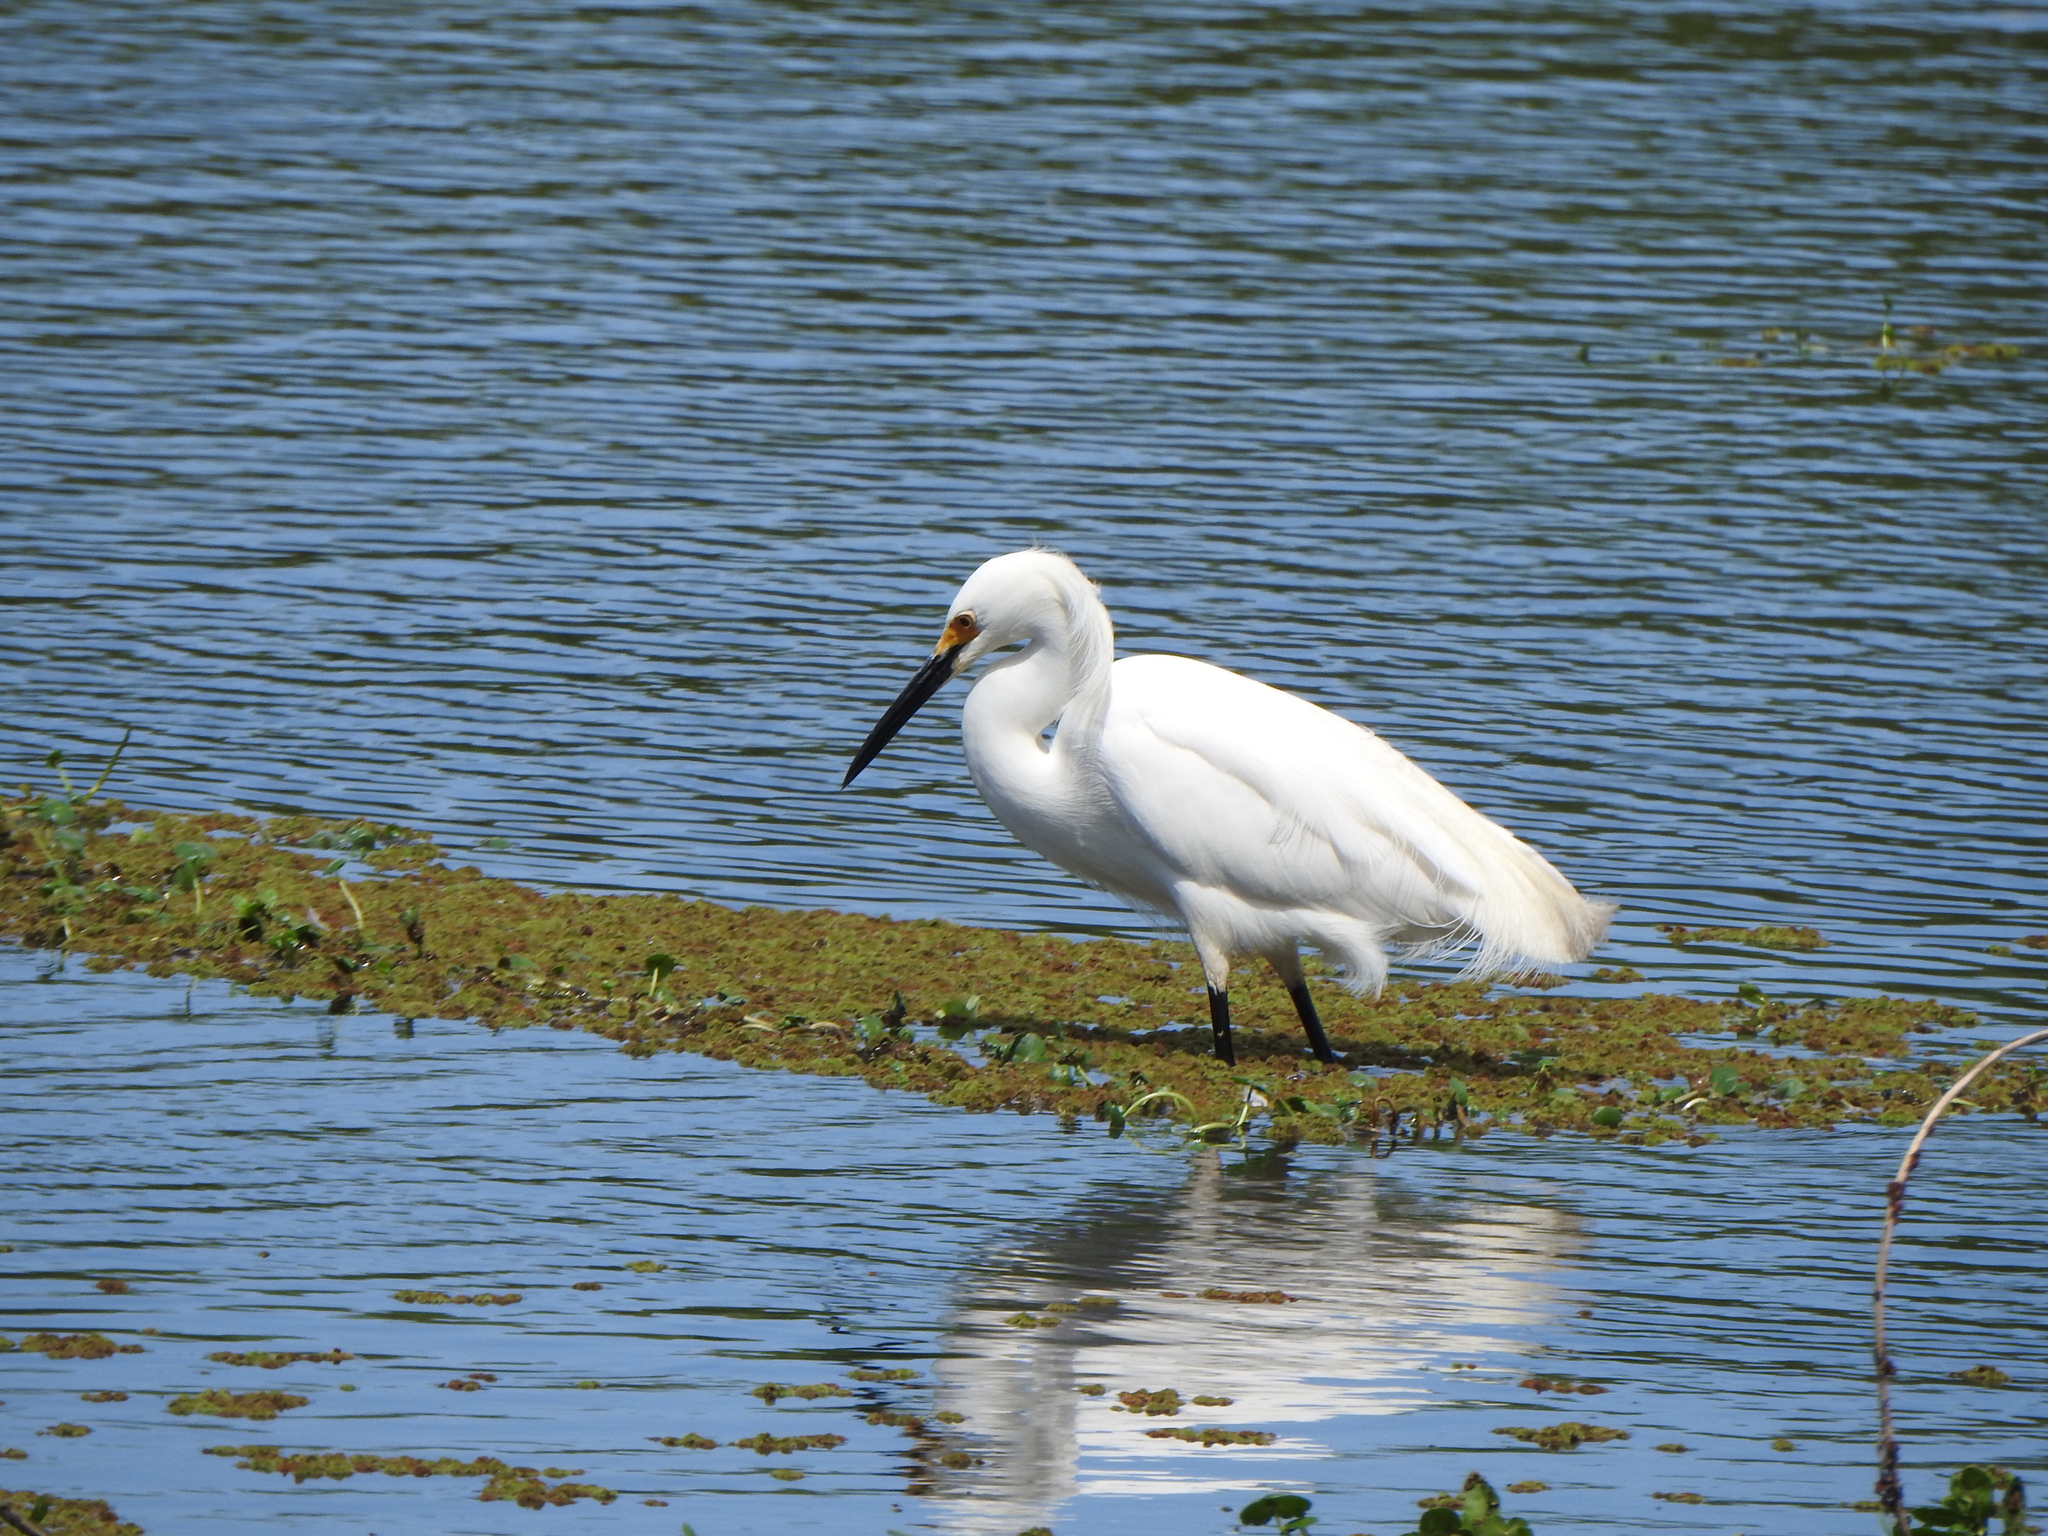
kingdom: Animalia
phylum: Chordata
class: Aves
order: Pelecaniformes
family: Ardeidae
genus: Egretta
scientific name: Egretta thula
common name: Snowy egret
